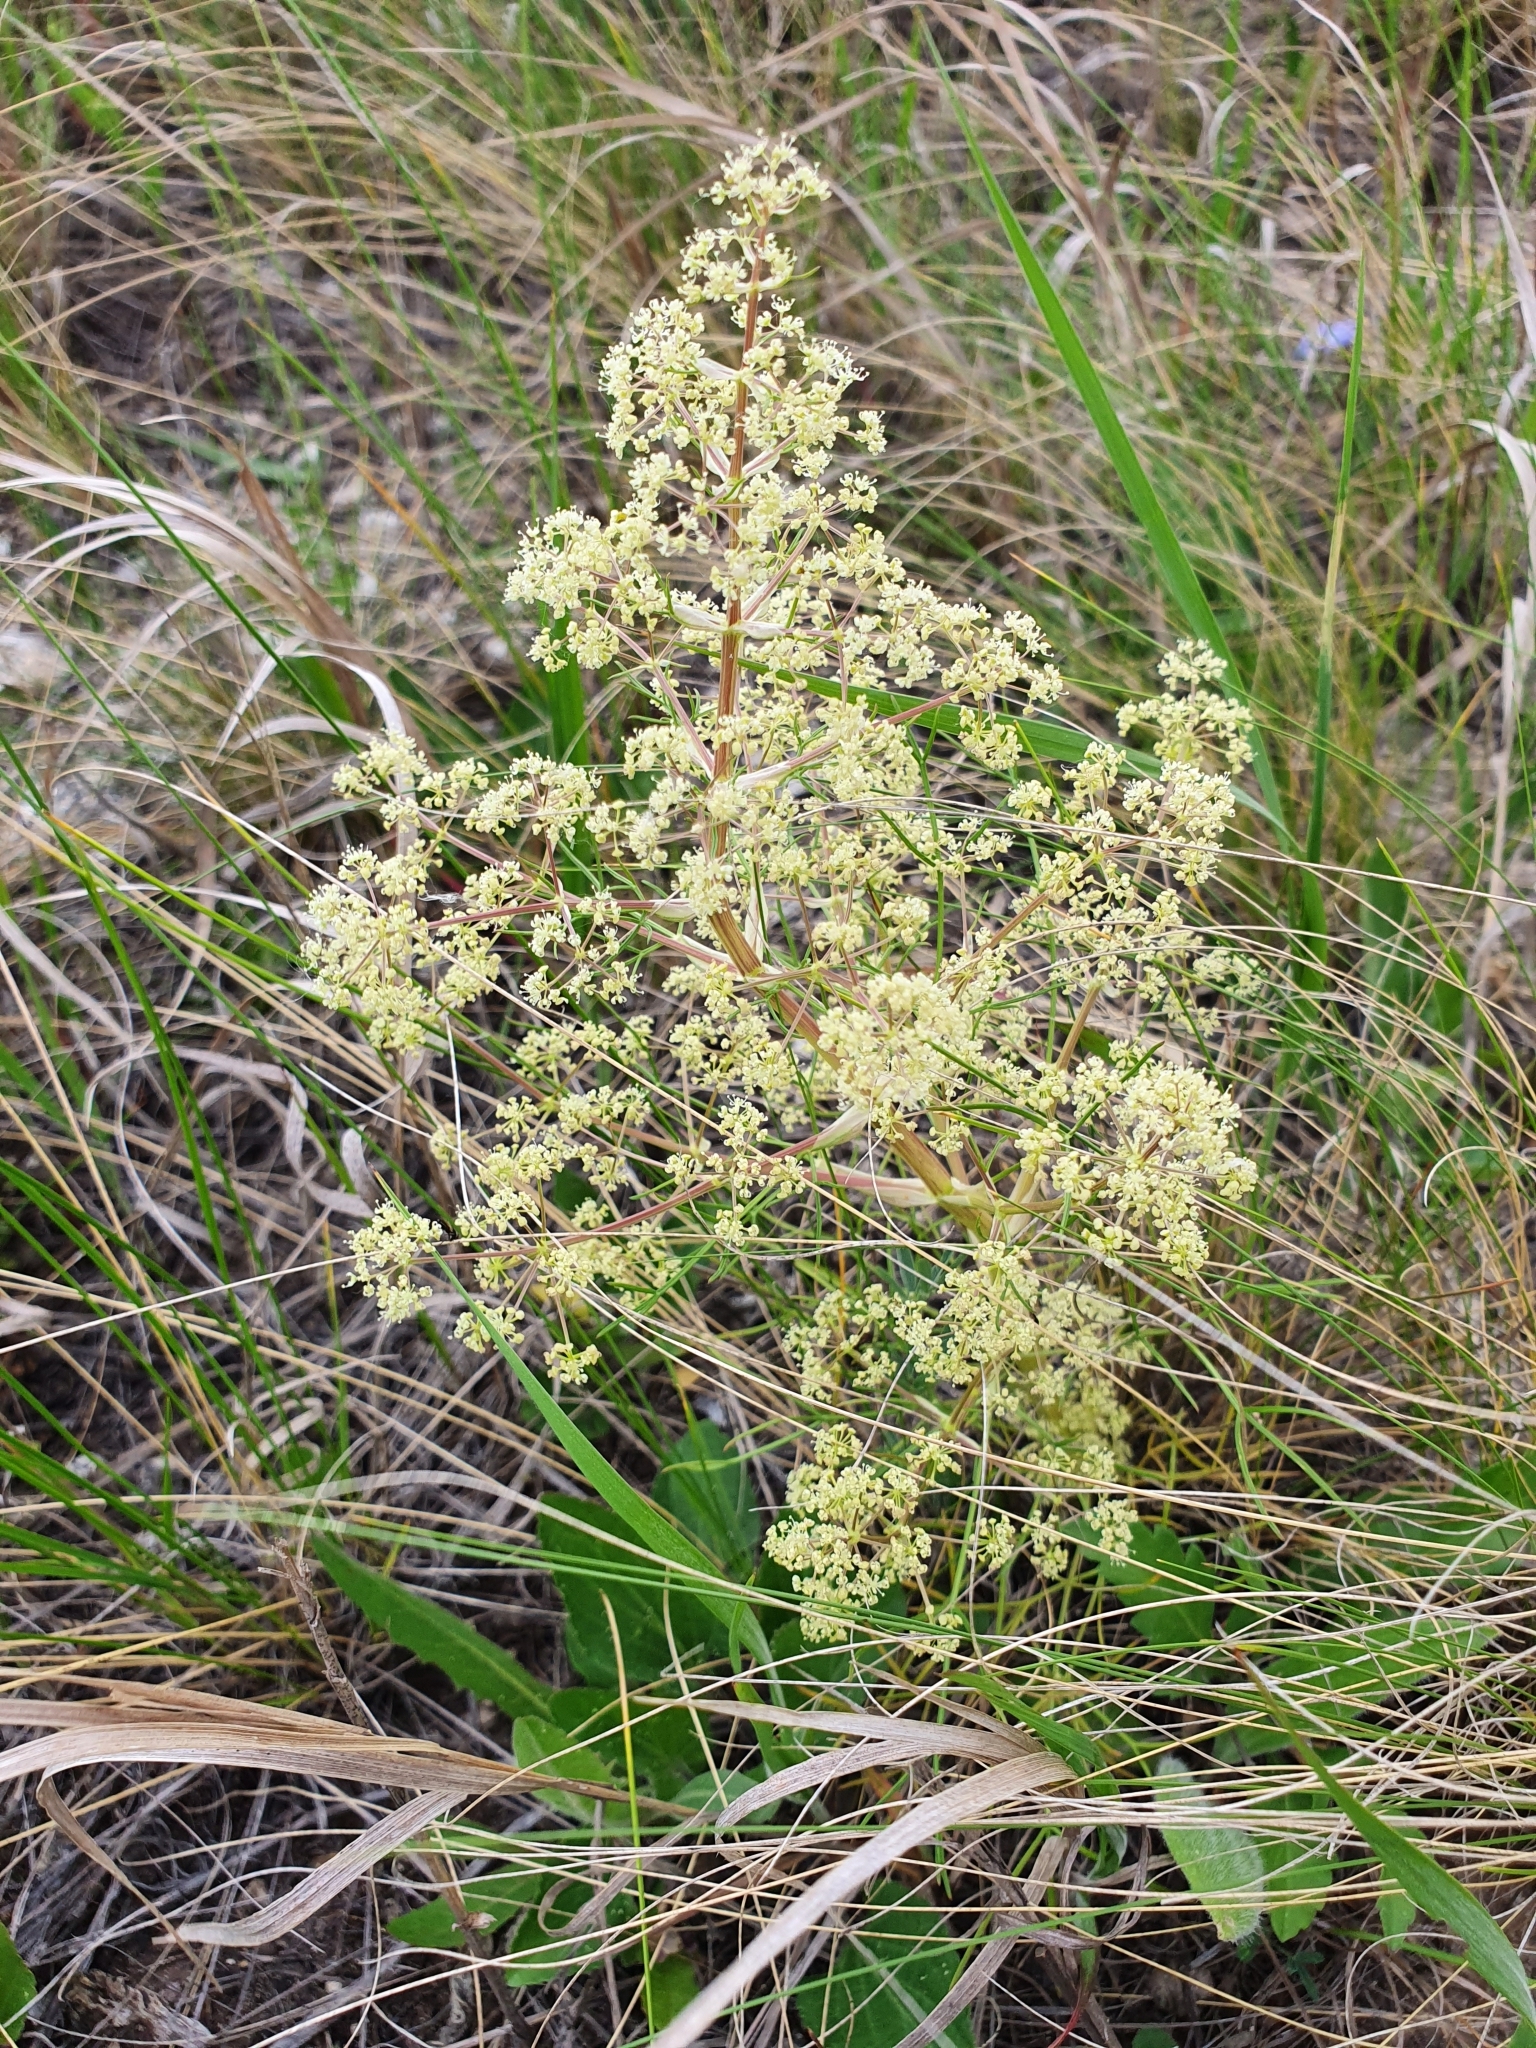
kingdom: Plantae
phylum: Tracheophyta
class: Magnoliopsida
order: Apiales
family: Apiaceae
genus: Trinia
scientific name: Trinia multicaulis
